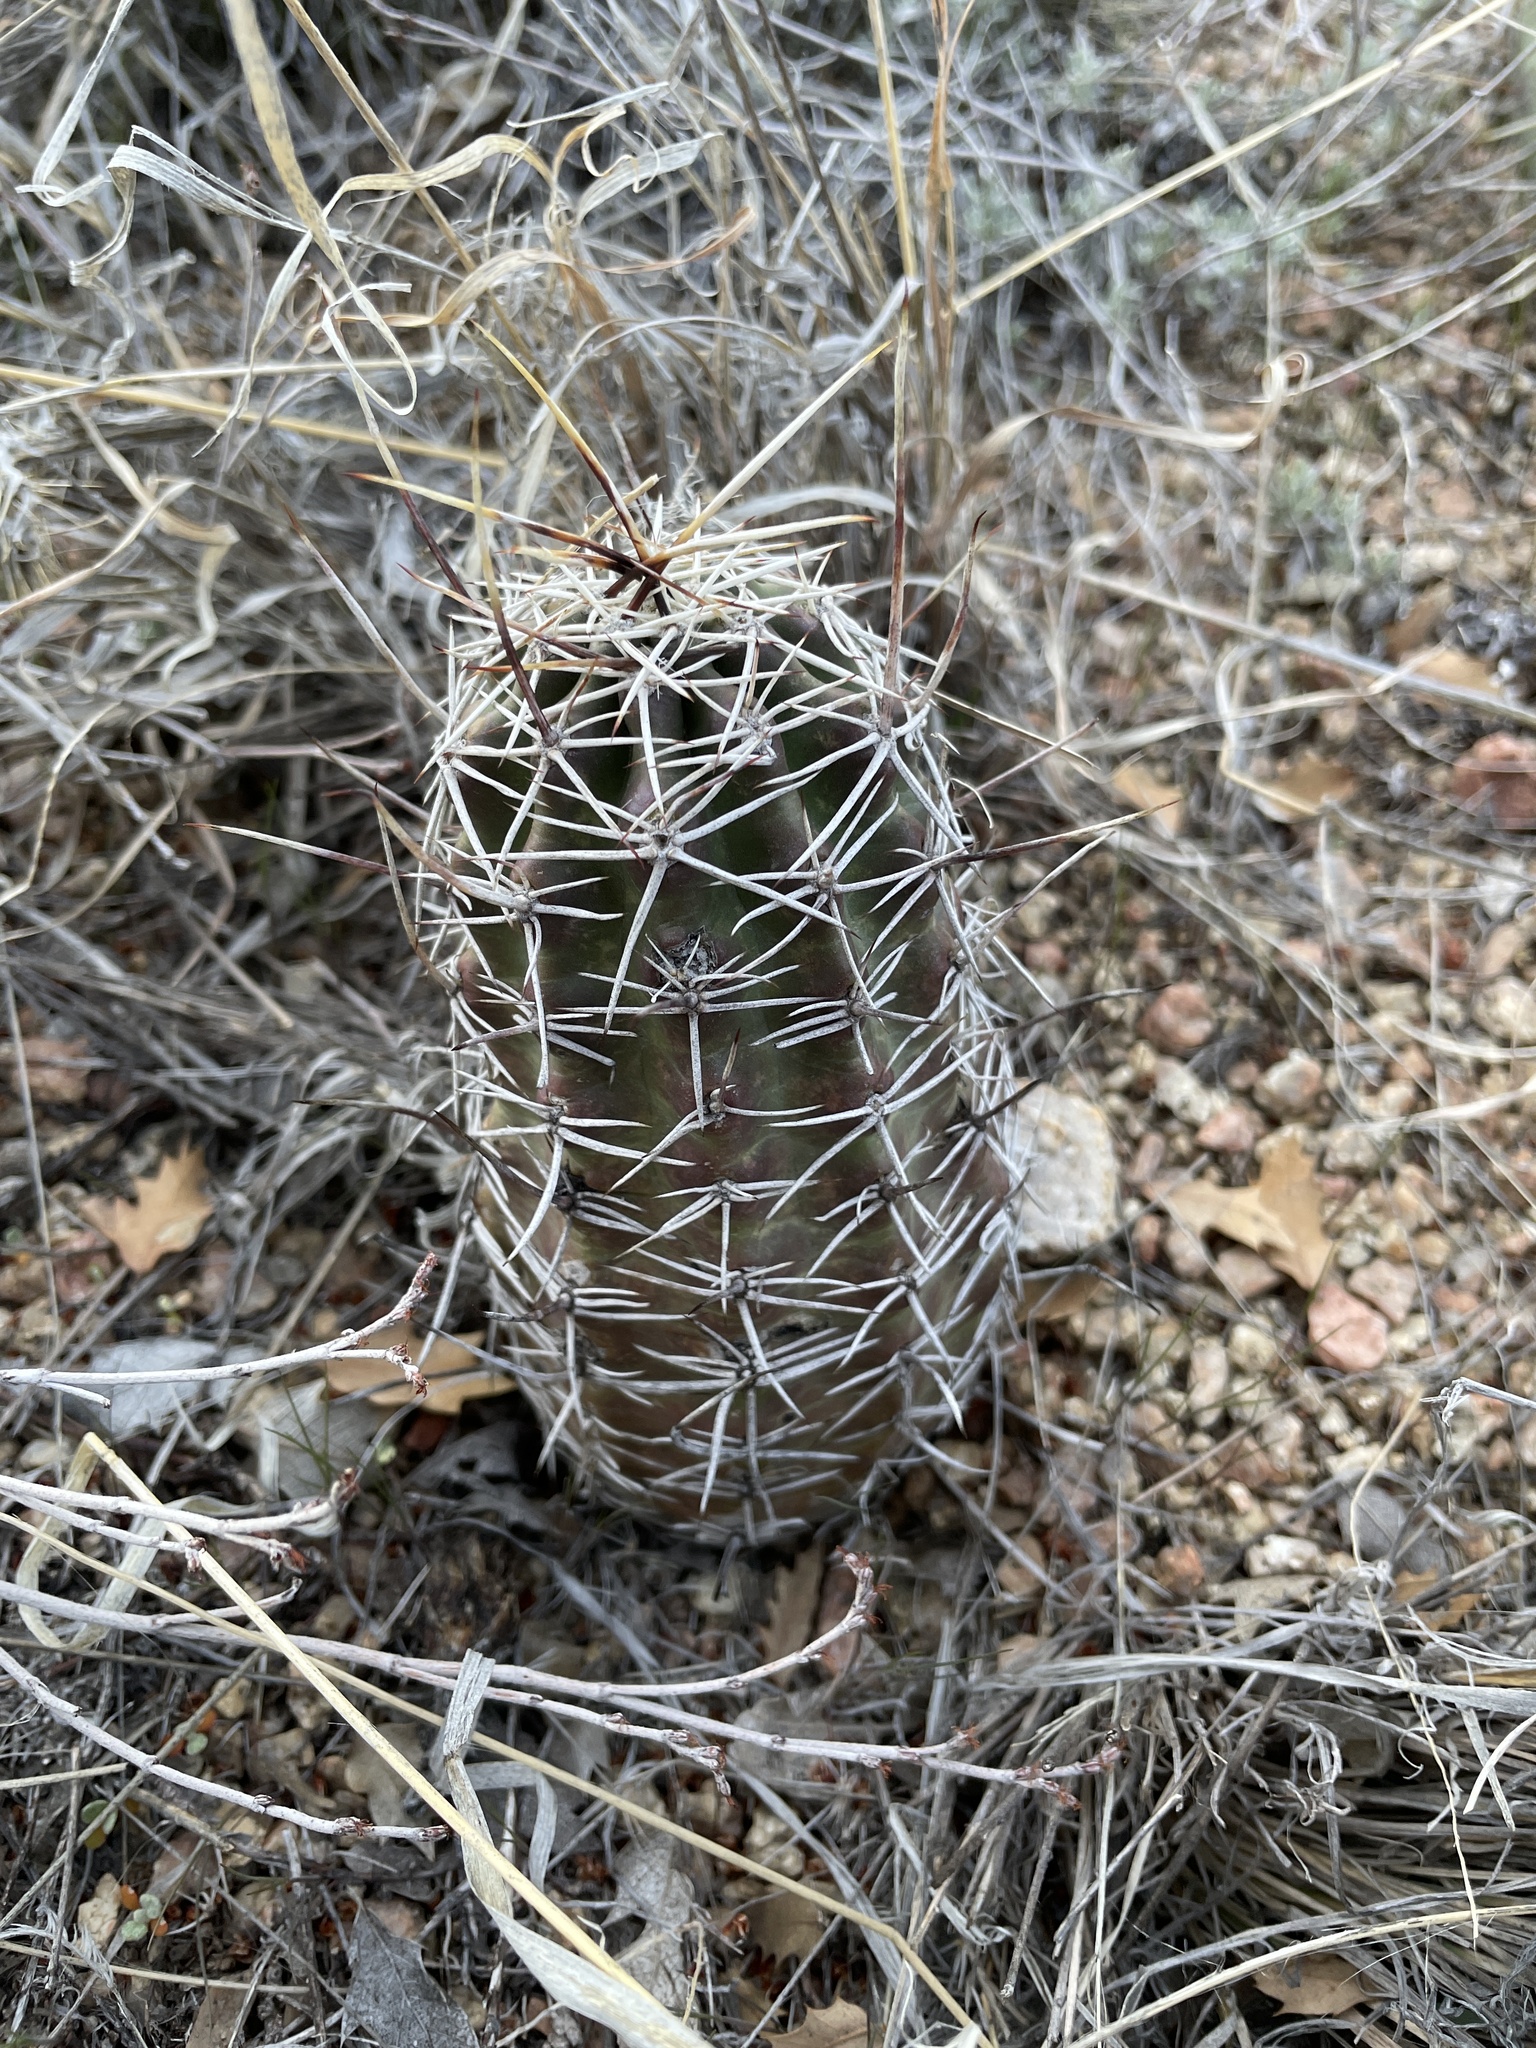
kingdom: Plantae
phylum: Tracheophyta
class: Magnoliopsida
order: Caryophyllales
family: Cactaceae
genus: Echinocereus
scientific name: Echinocereus fendleri
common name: Fendler's hedgehog cactus
